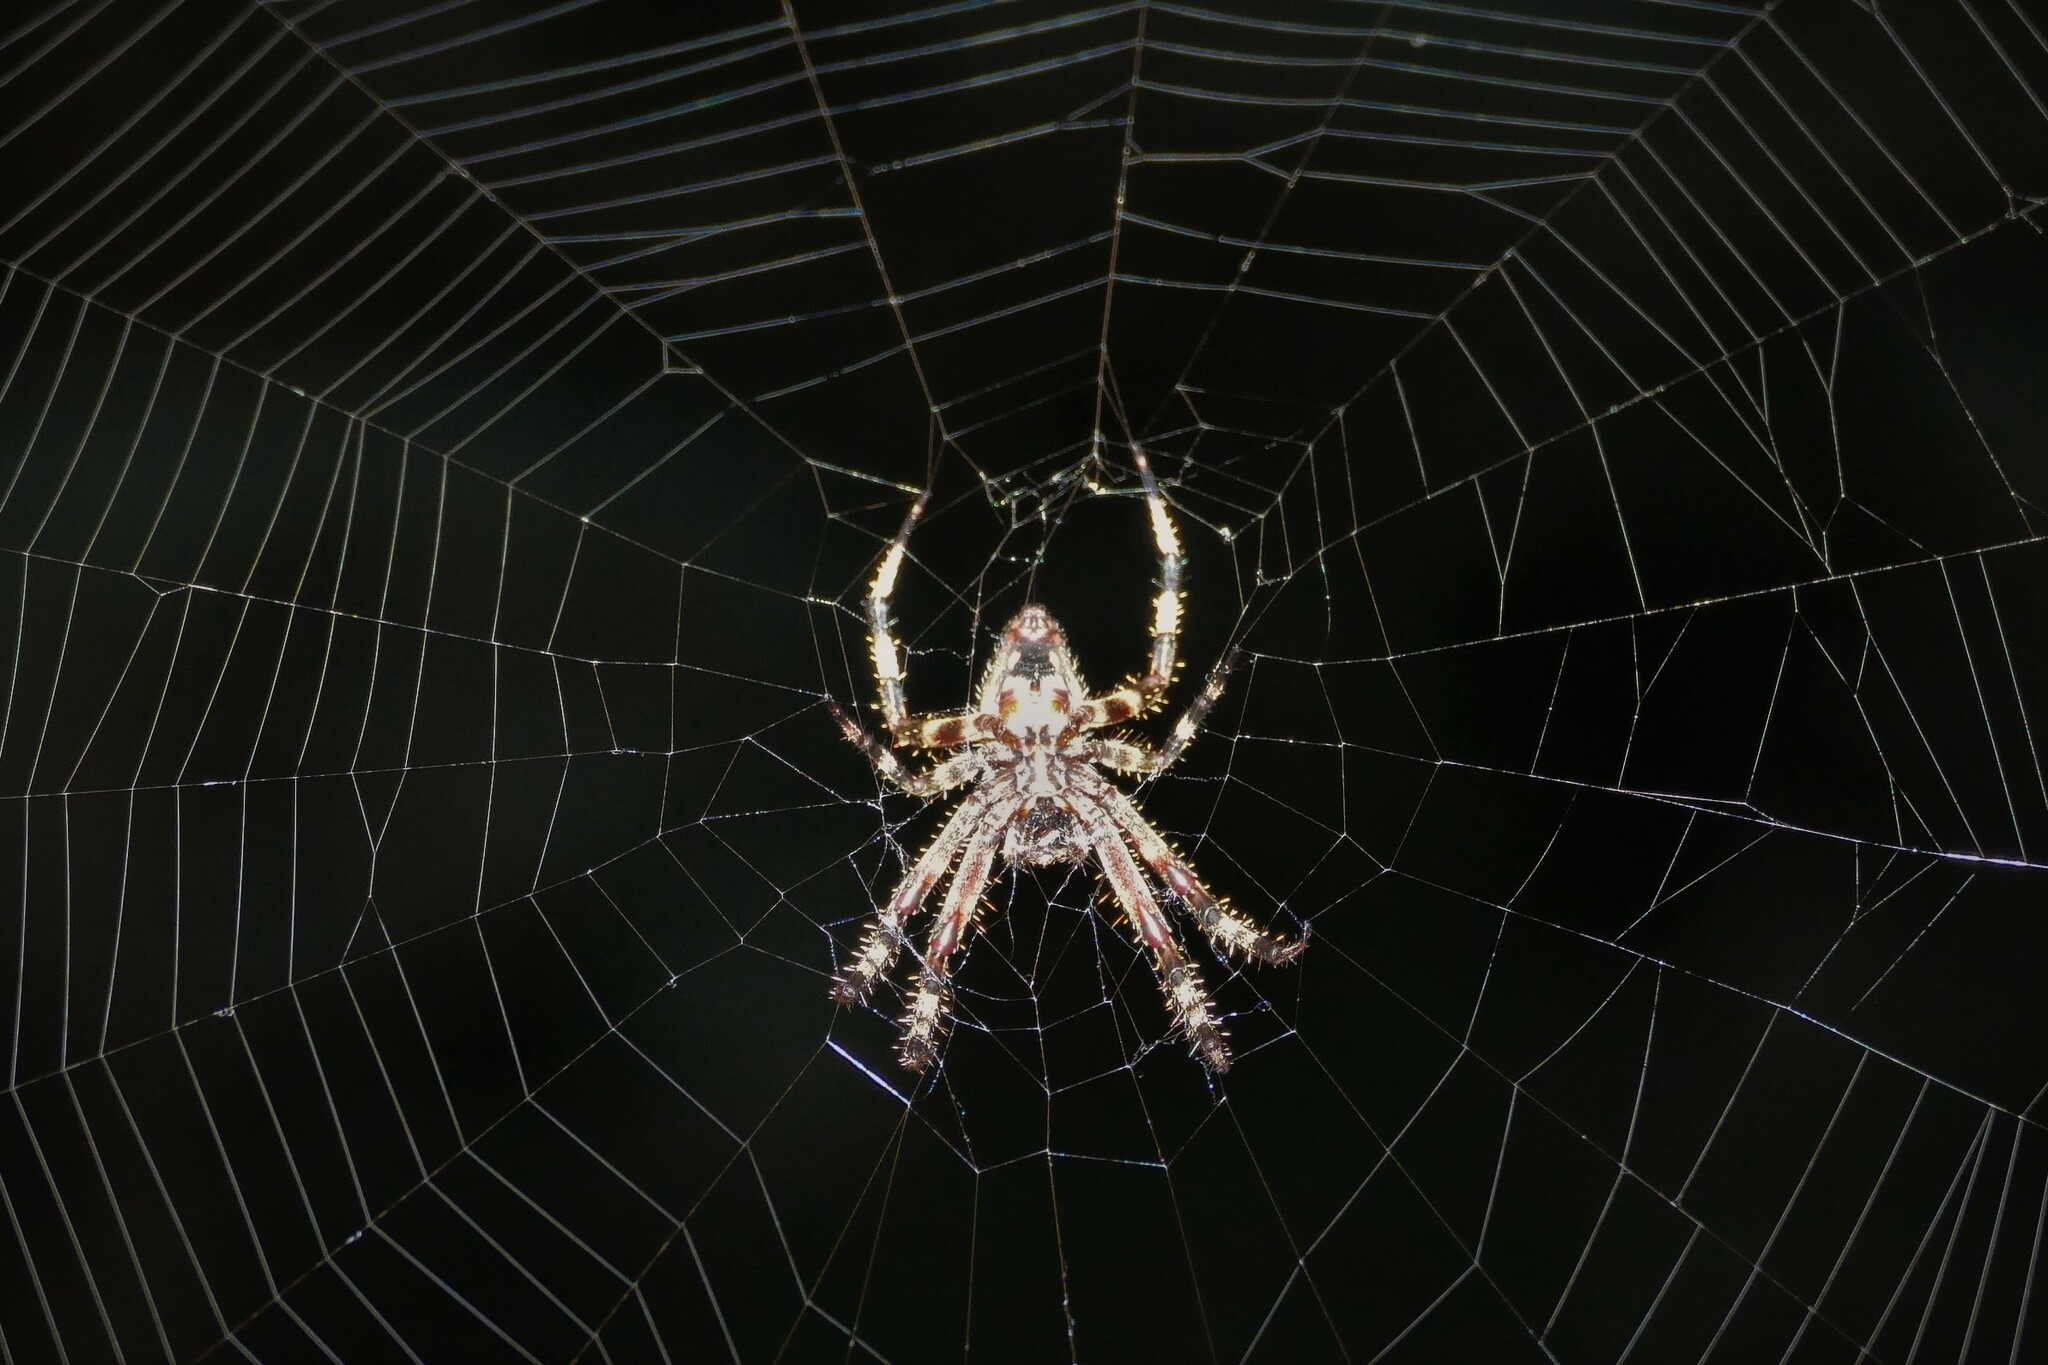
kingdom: Animalia
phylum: Arthropoda
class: Arachnida
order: Araneae
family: Araneidae
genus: Neoscona
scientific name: Neoscona crucifera
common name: Spotted orbweaver
